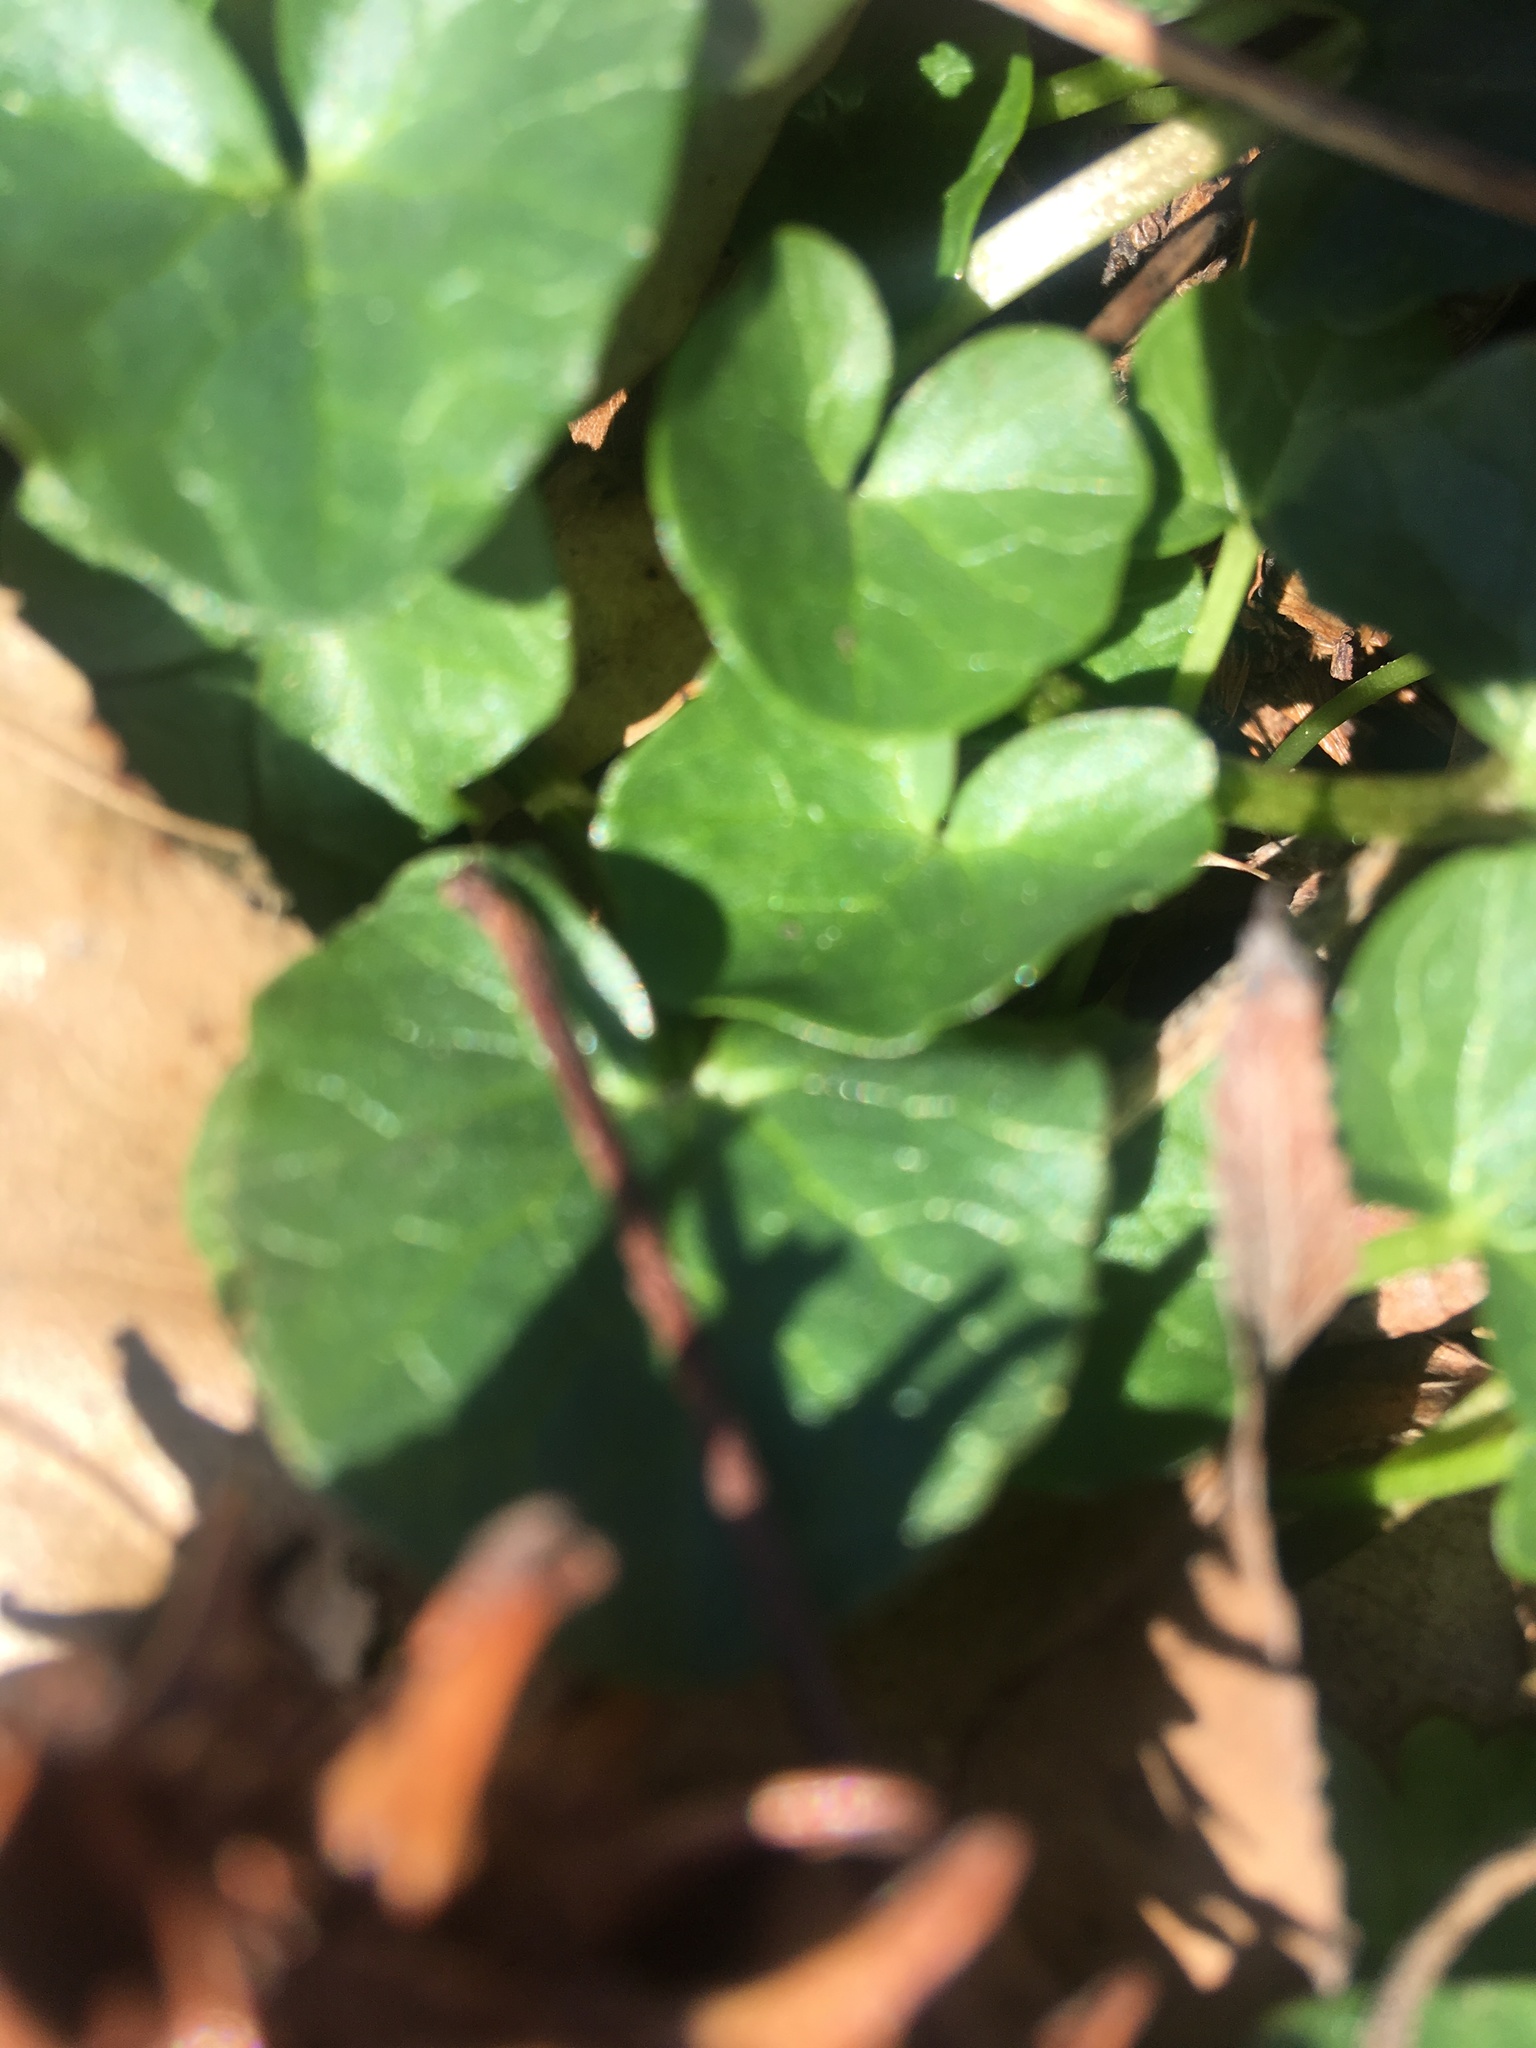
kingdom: Plantae
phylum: Tracheophyta
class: Magnoliopsida
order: Ranunculales
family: Ranunculaceae
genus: Ficaria
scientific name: Ficaria verna
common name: Lesser celandine
